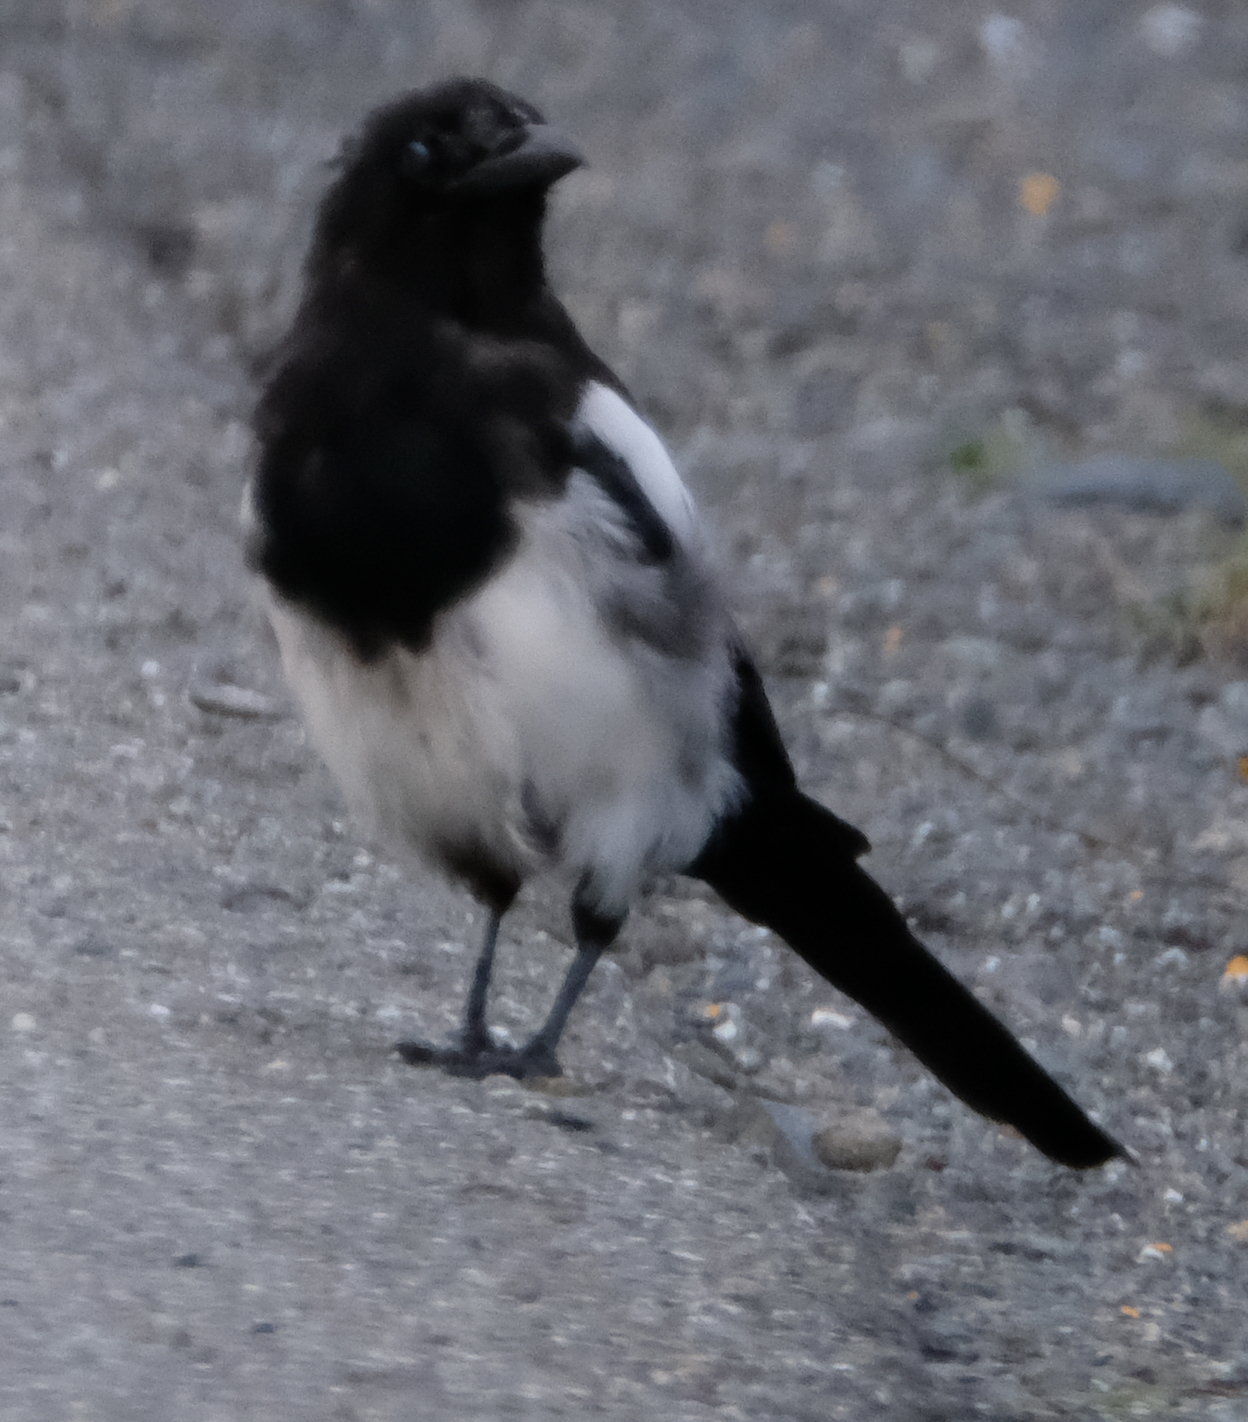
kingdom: Animalia
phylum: Chordata
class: Aves
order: Passeriformes
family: Corvidae
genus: Pica
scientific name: Pica hudsonia
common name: Black-billed magpie
